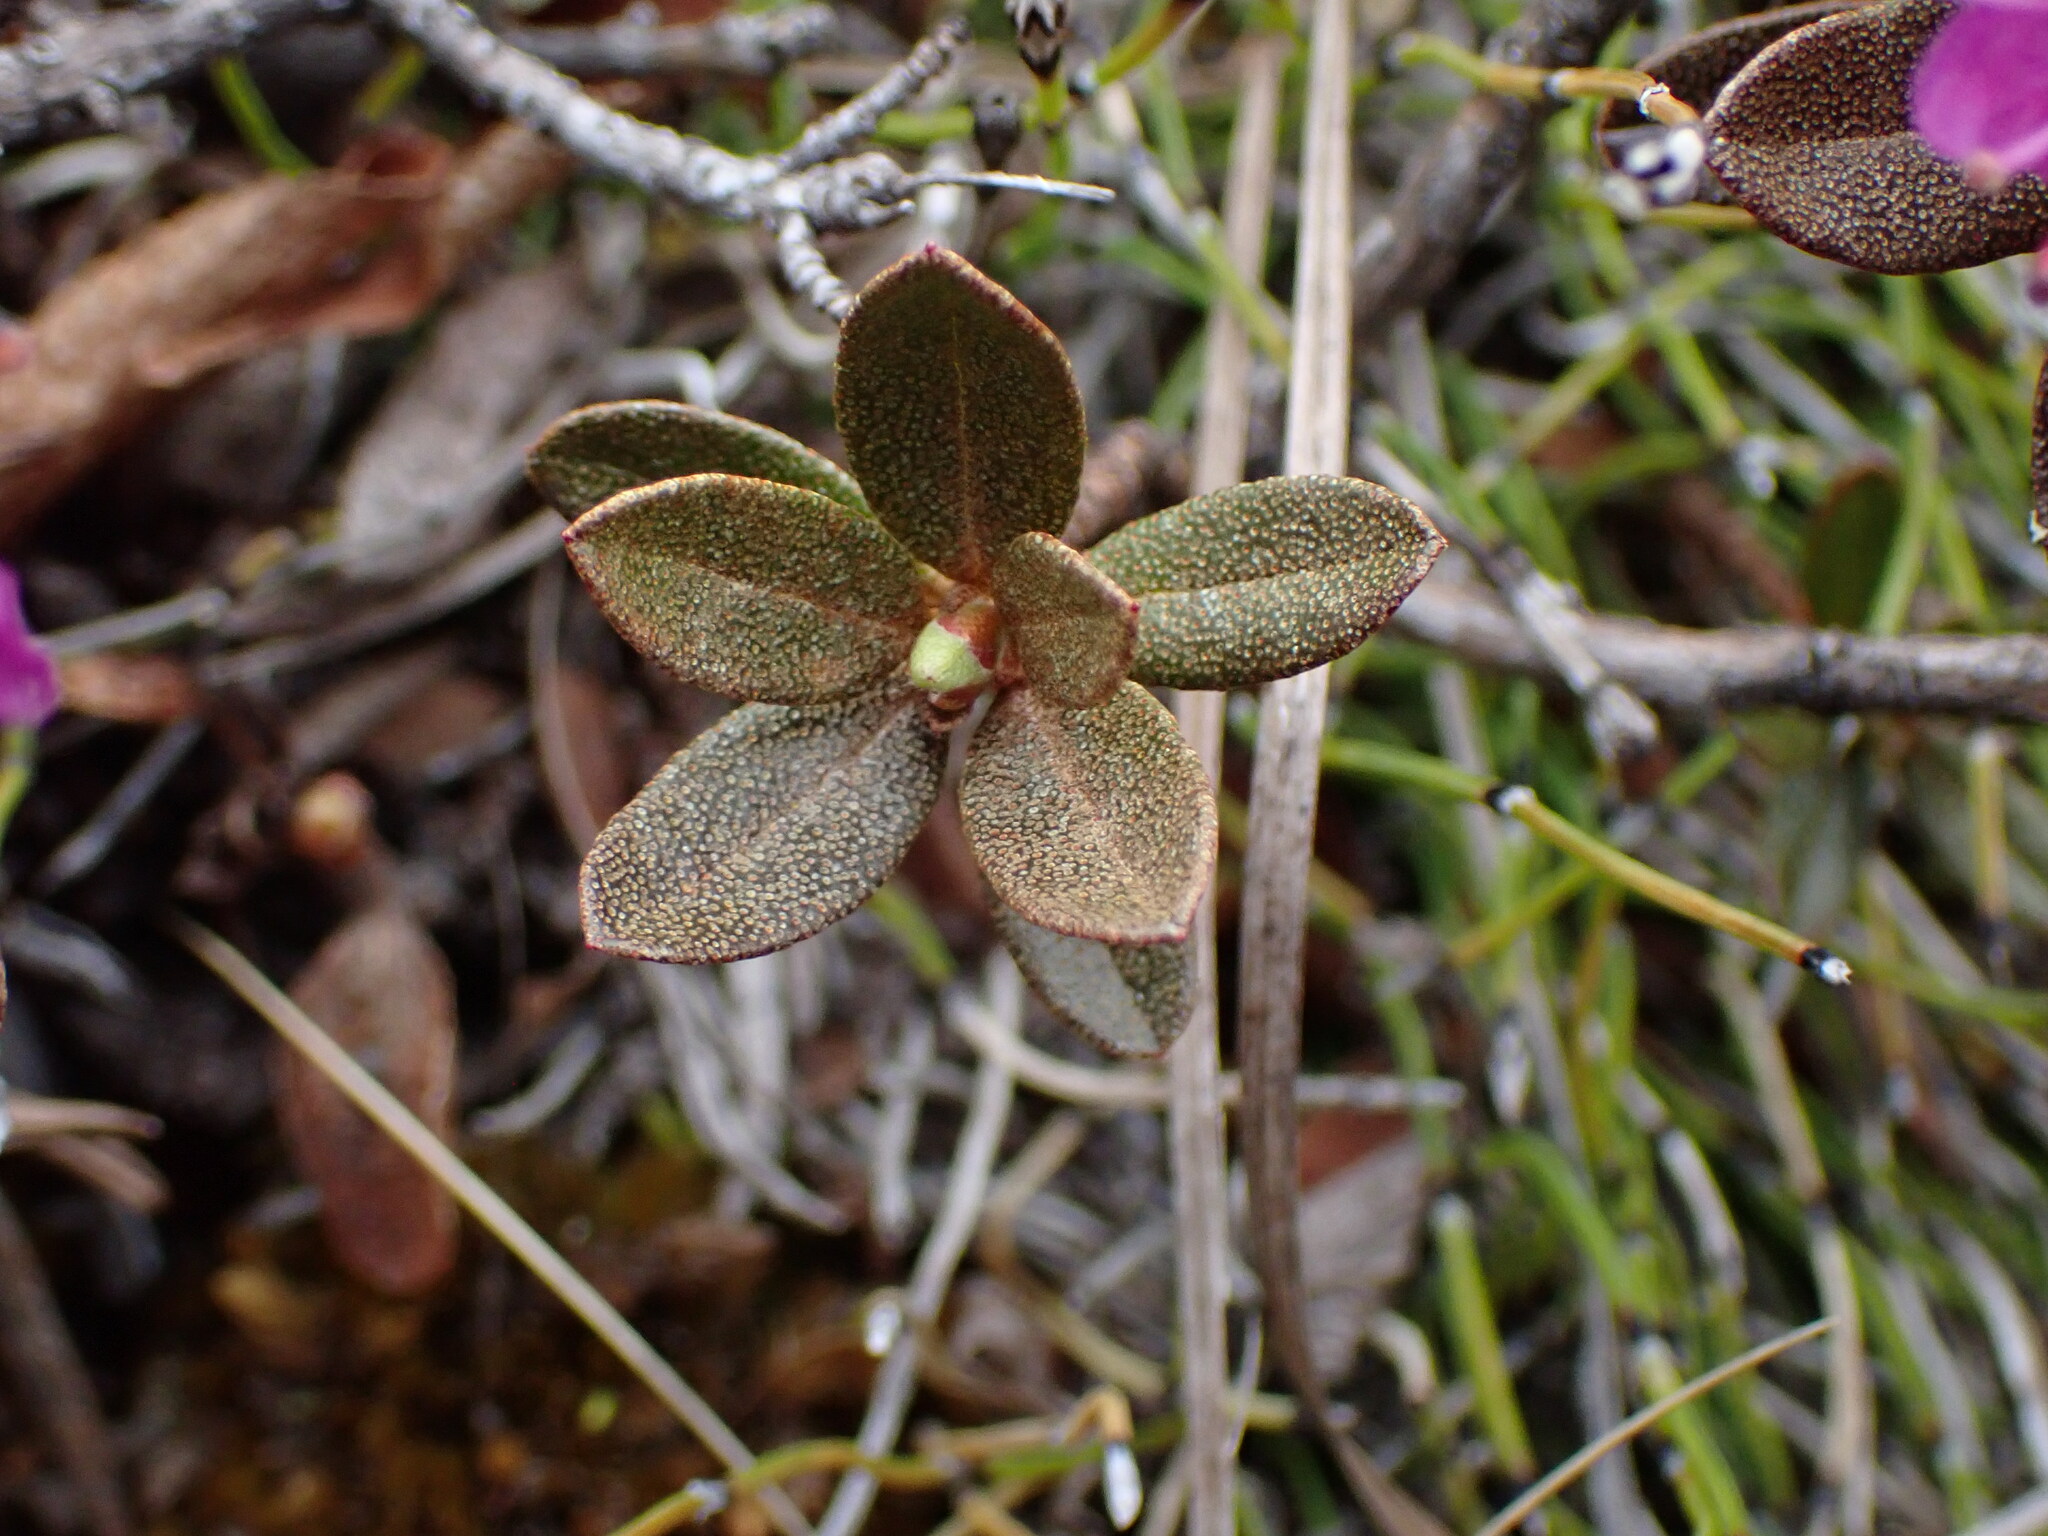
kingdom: Plantae
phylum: Tracheophyta
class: Magnoliopsida
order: Ericales
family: Ericaceae
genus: Rhododendron
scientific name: Rhododendron lapponicum
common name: Lapland rhododendron
